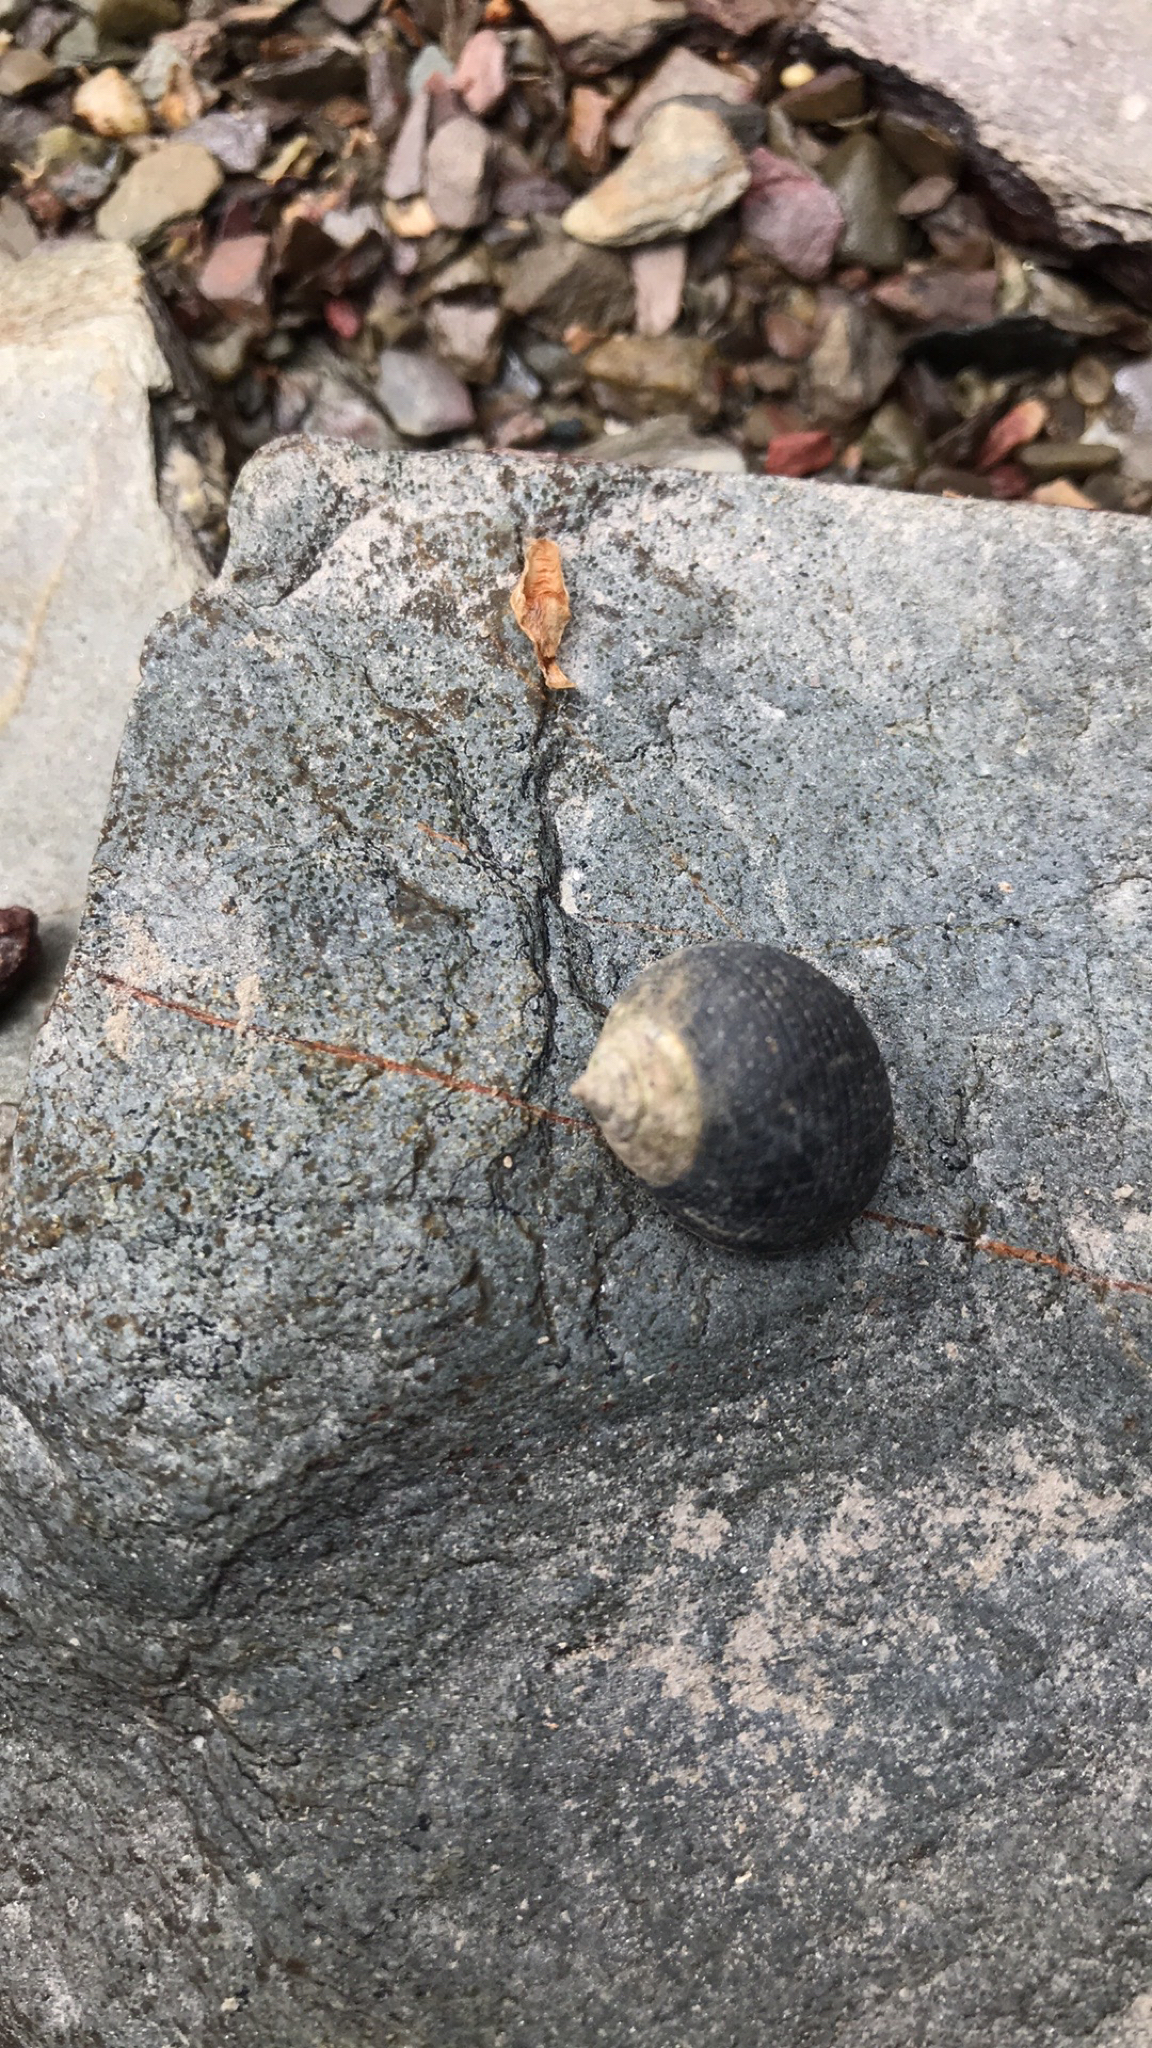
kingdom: Animalia
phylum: Mollusca
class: Gastropoda
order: Littorinimorpha
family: Littorinidae
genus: Littorina
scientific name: Littorina littorea
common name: Common periwinkle
